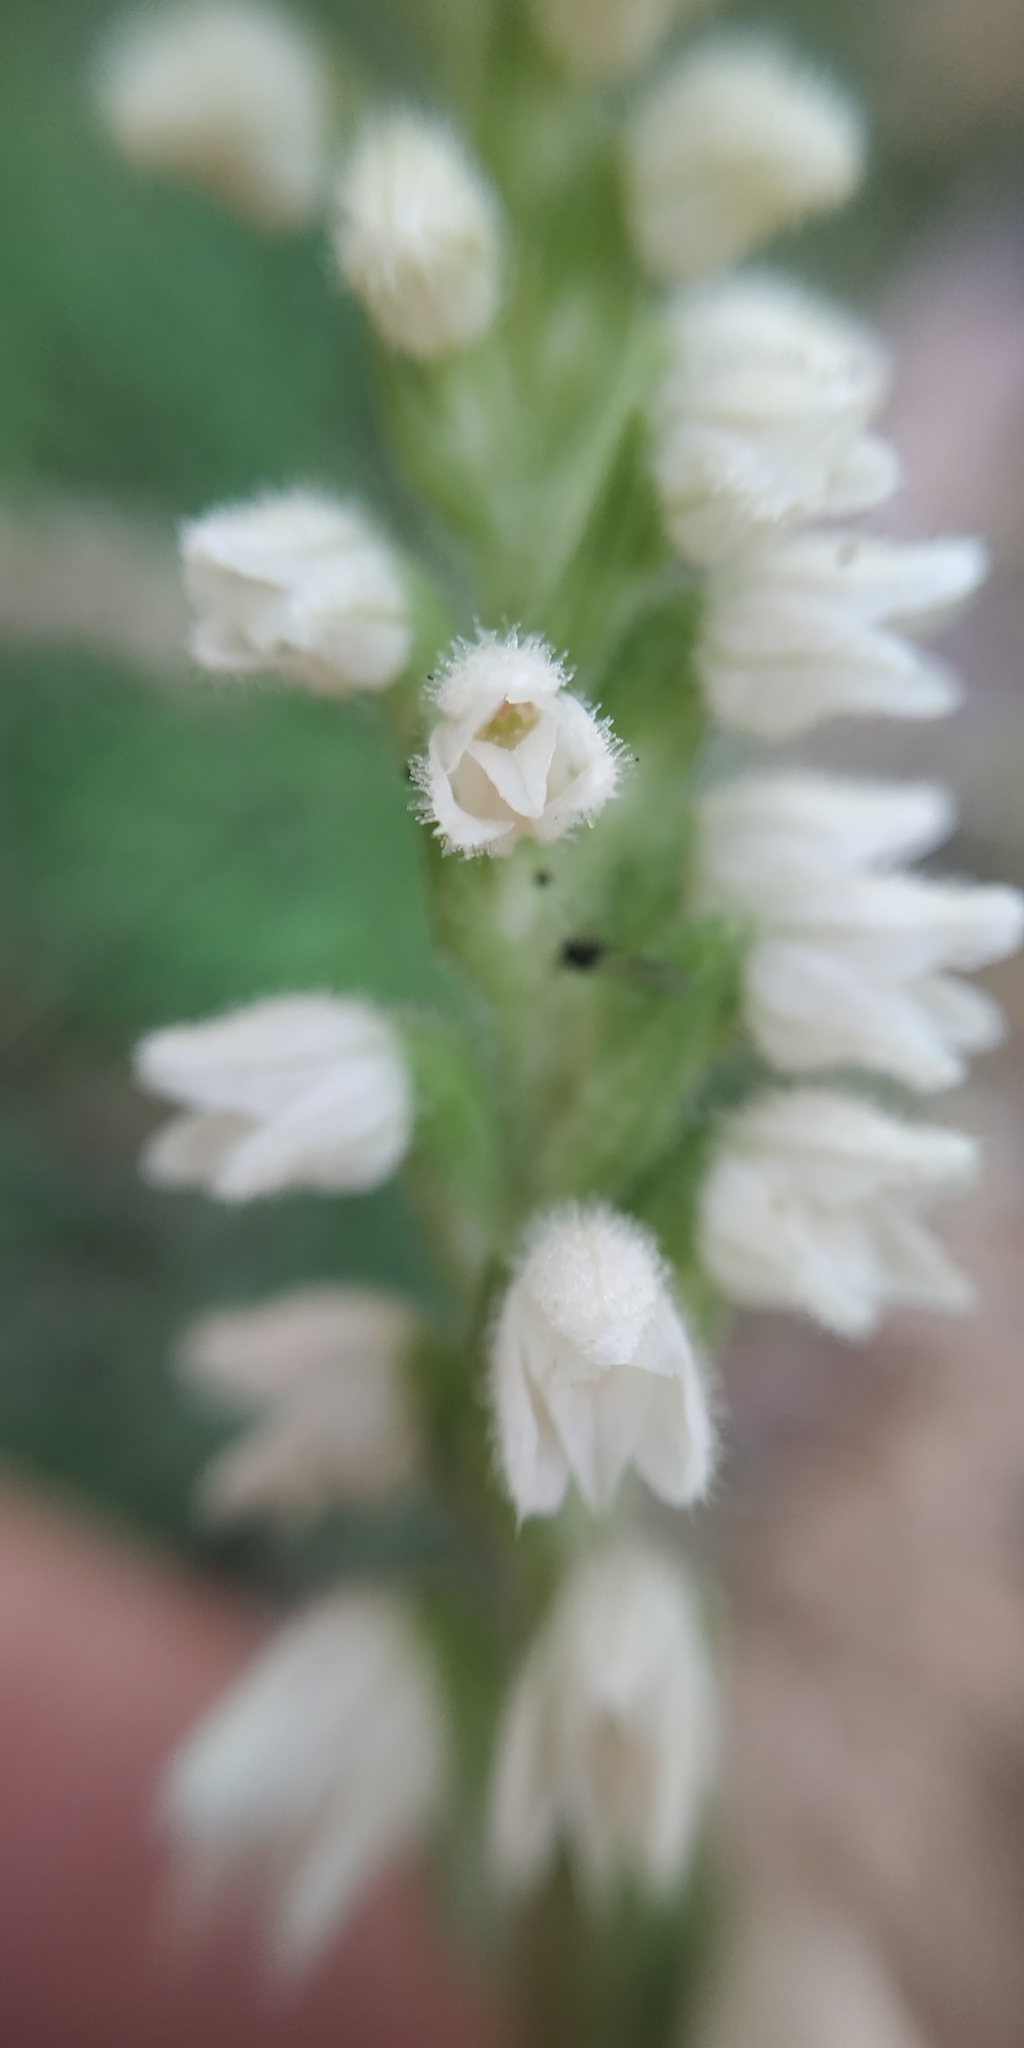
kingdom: Plantae
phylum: Tracheophyta
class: Liliopsida
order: Asparagales
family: Orchidaceae
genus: Goodyera
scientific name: Goodyera repens
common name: Creeping lady's-tresses
